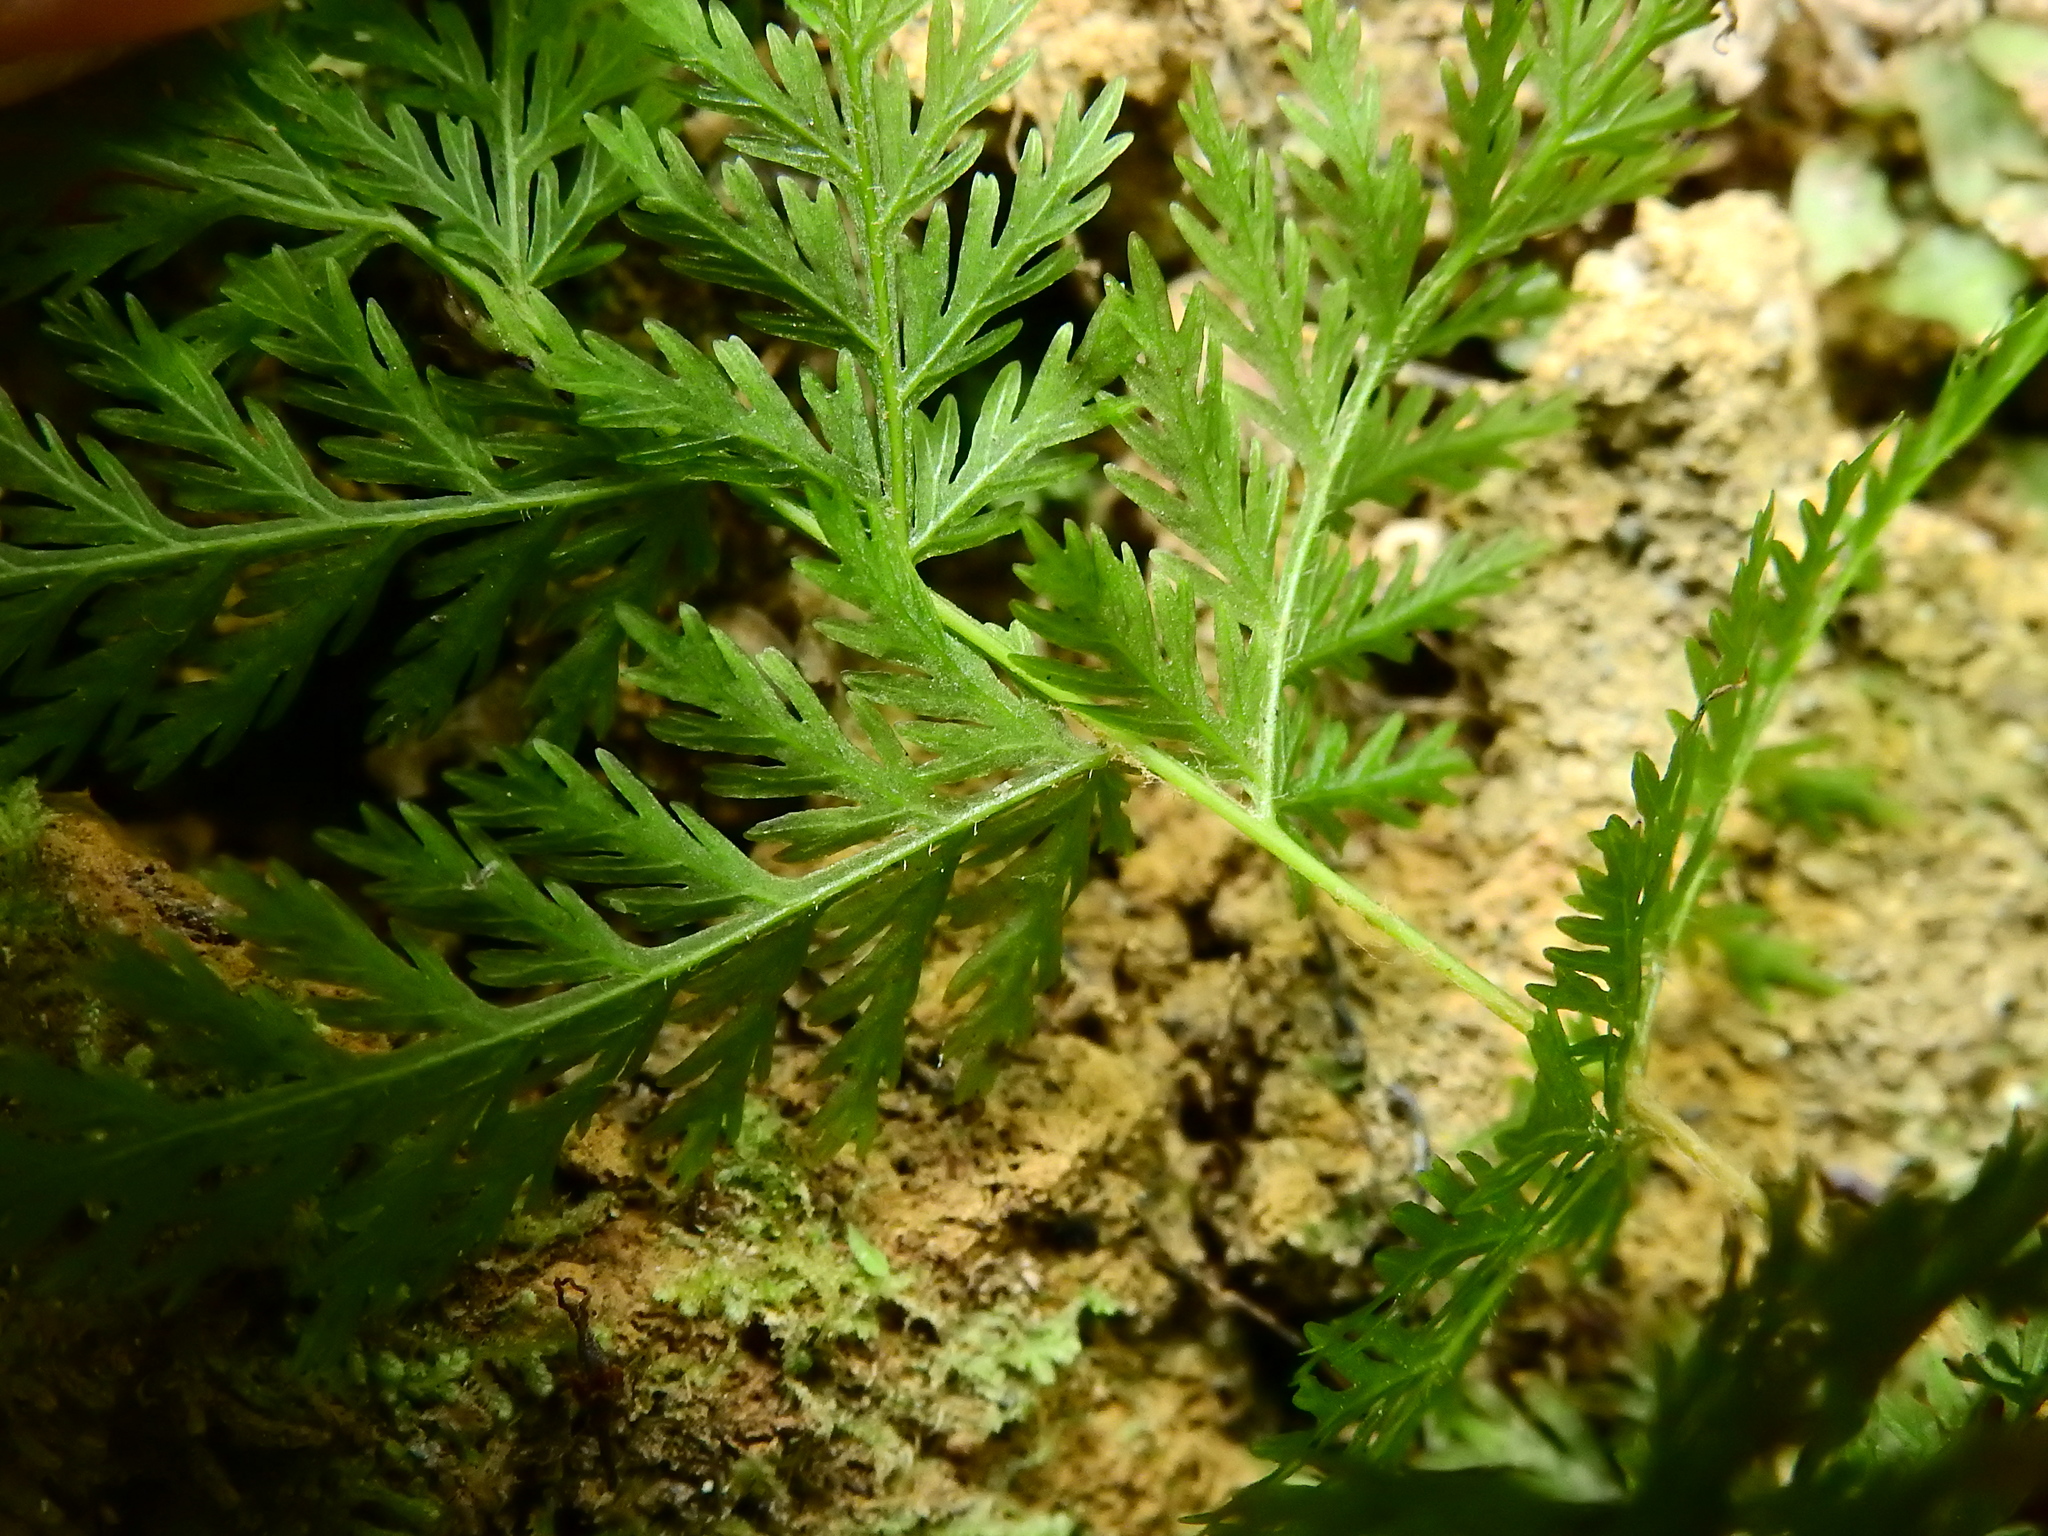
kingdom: Plantae
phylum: Tracheophyta
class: Polypodiopsida
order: Osmundales
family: Osmundaceae
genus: Leptopteris
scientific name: Leptopteris hymenophylloides
